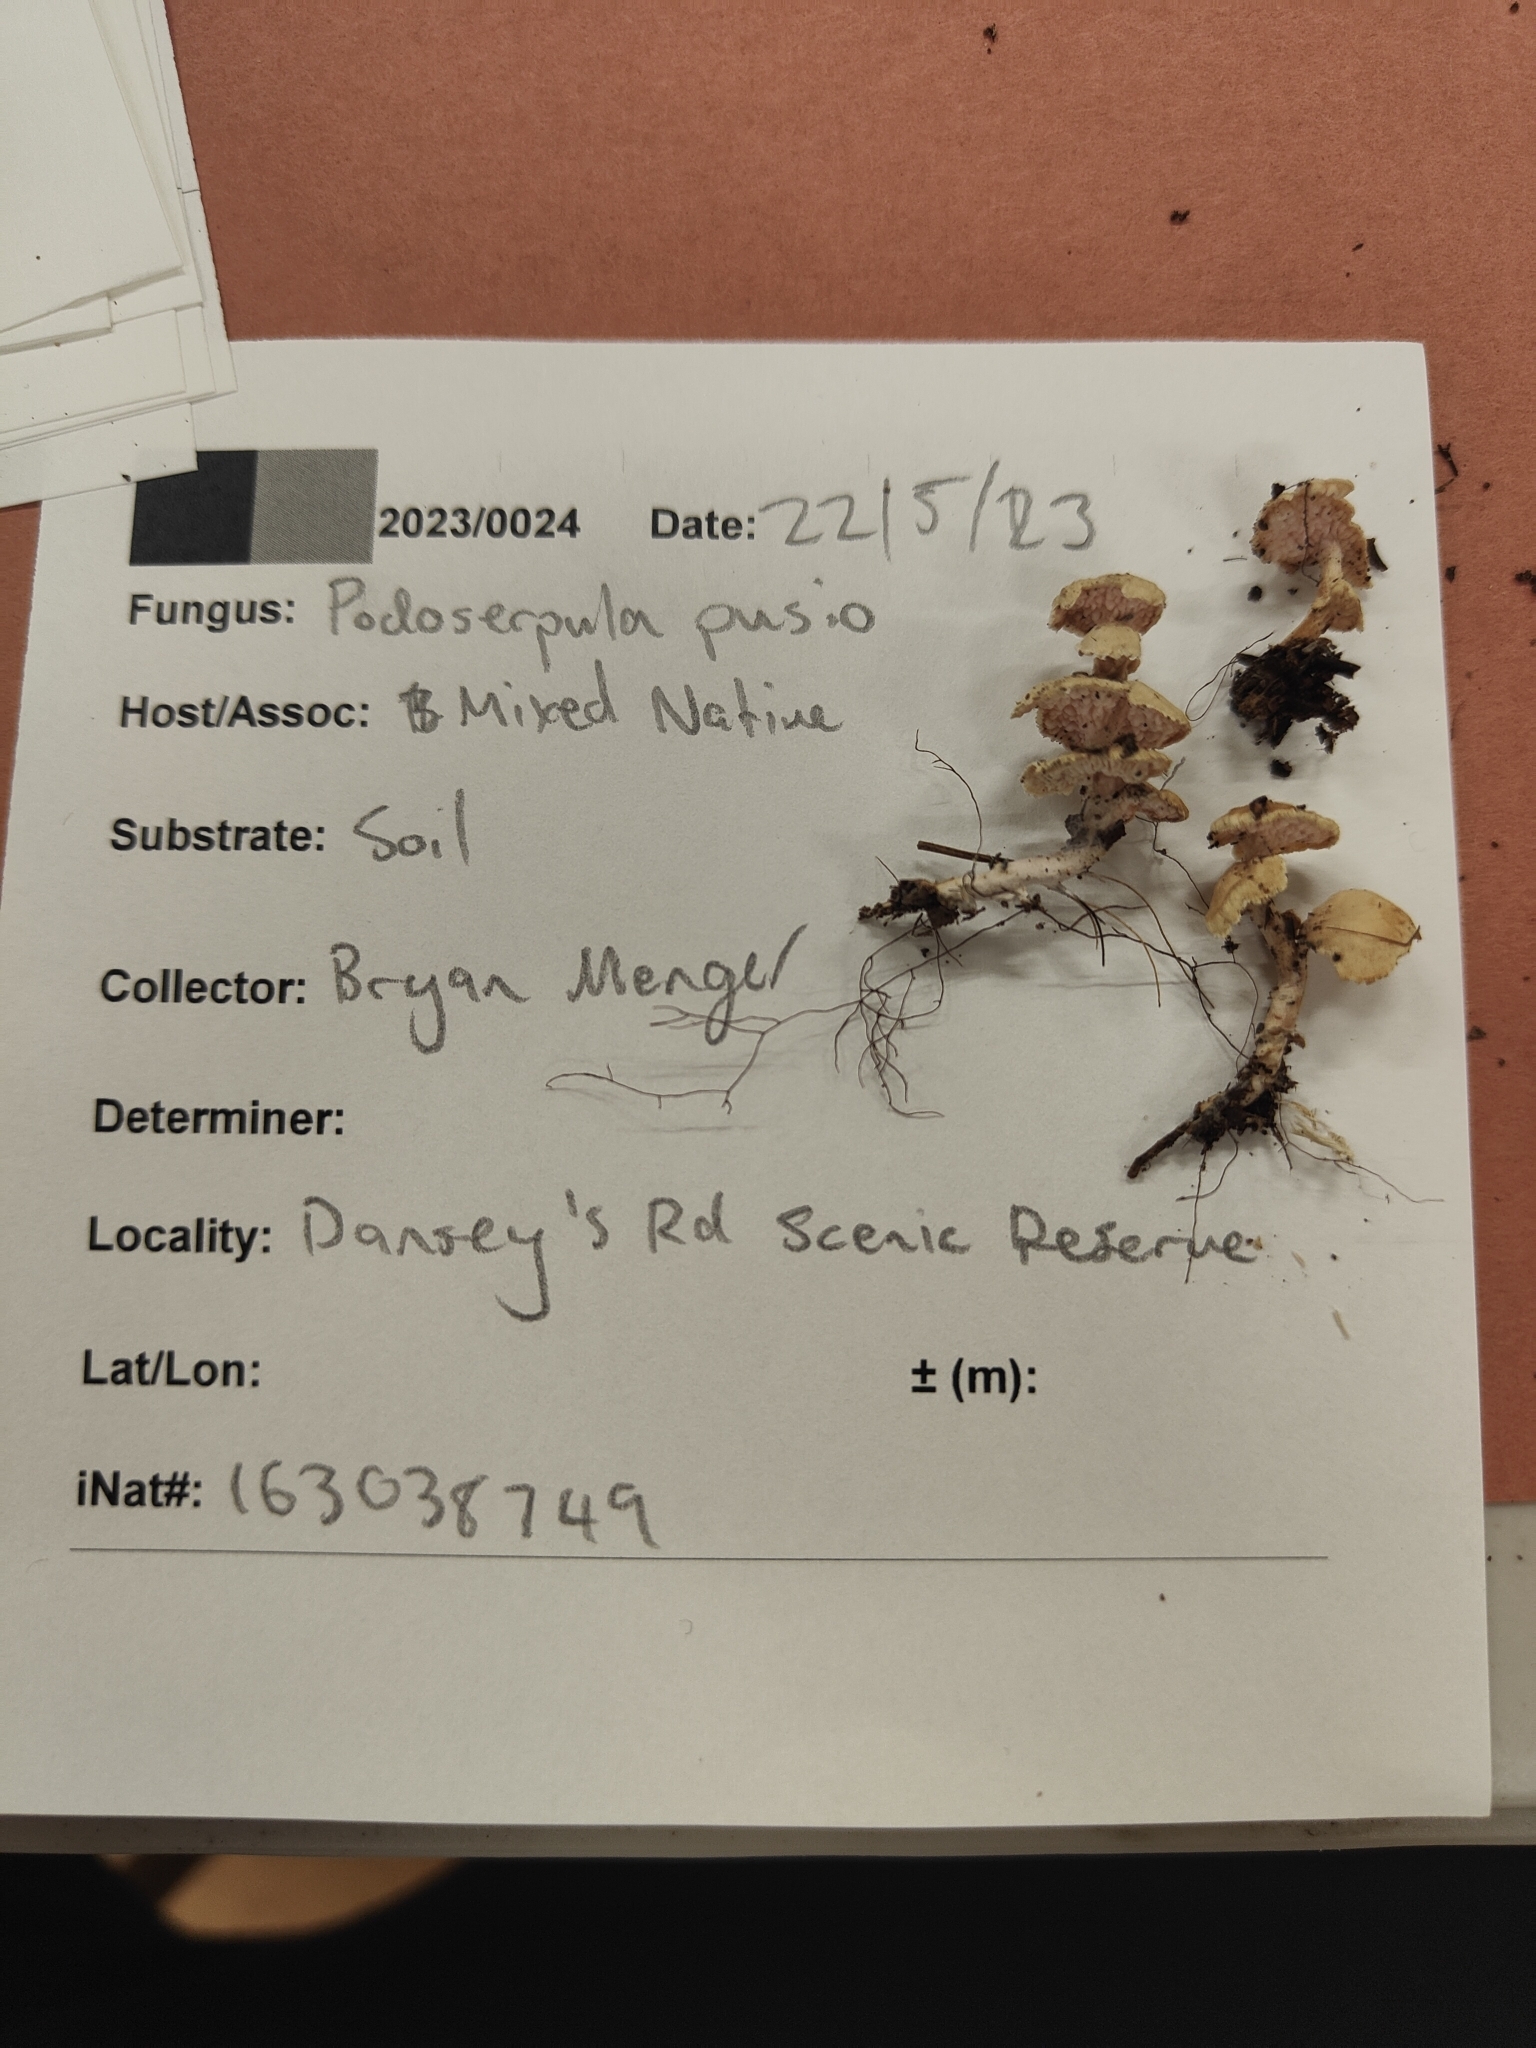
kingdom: Fungi
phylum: Basidiomycota
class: Agaricomycetes
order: Amylocorticiales
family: Amylocorticiaceae
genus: Podoserpula
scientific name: Podoserpula pusio
